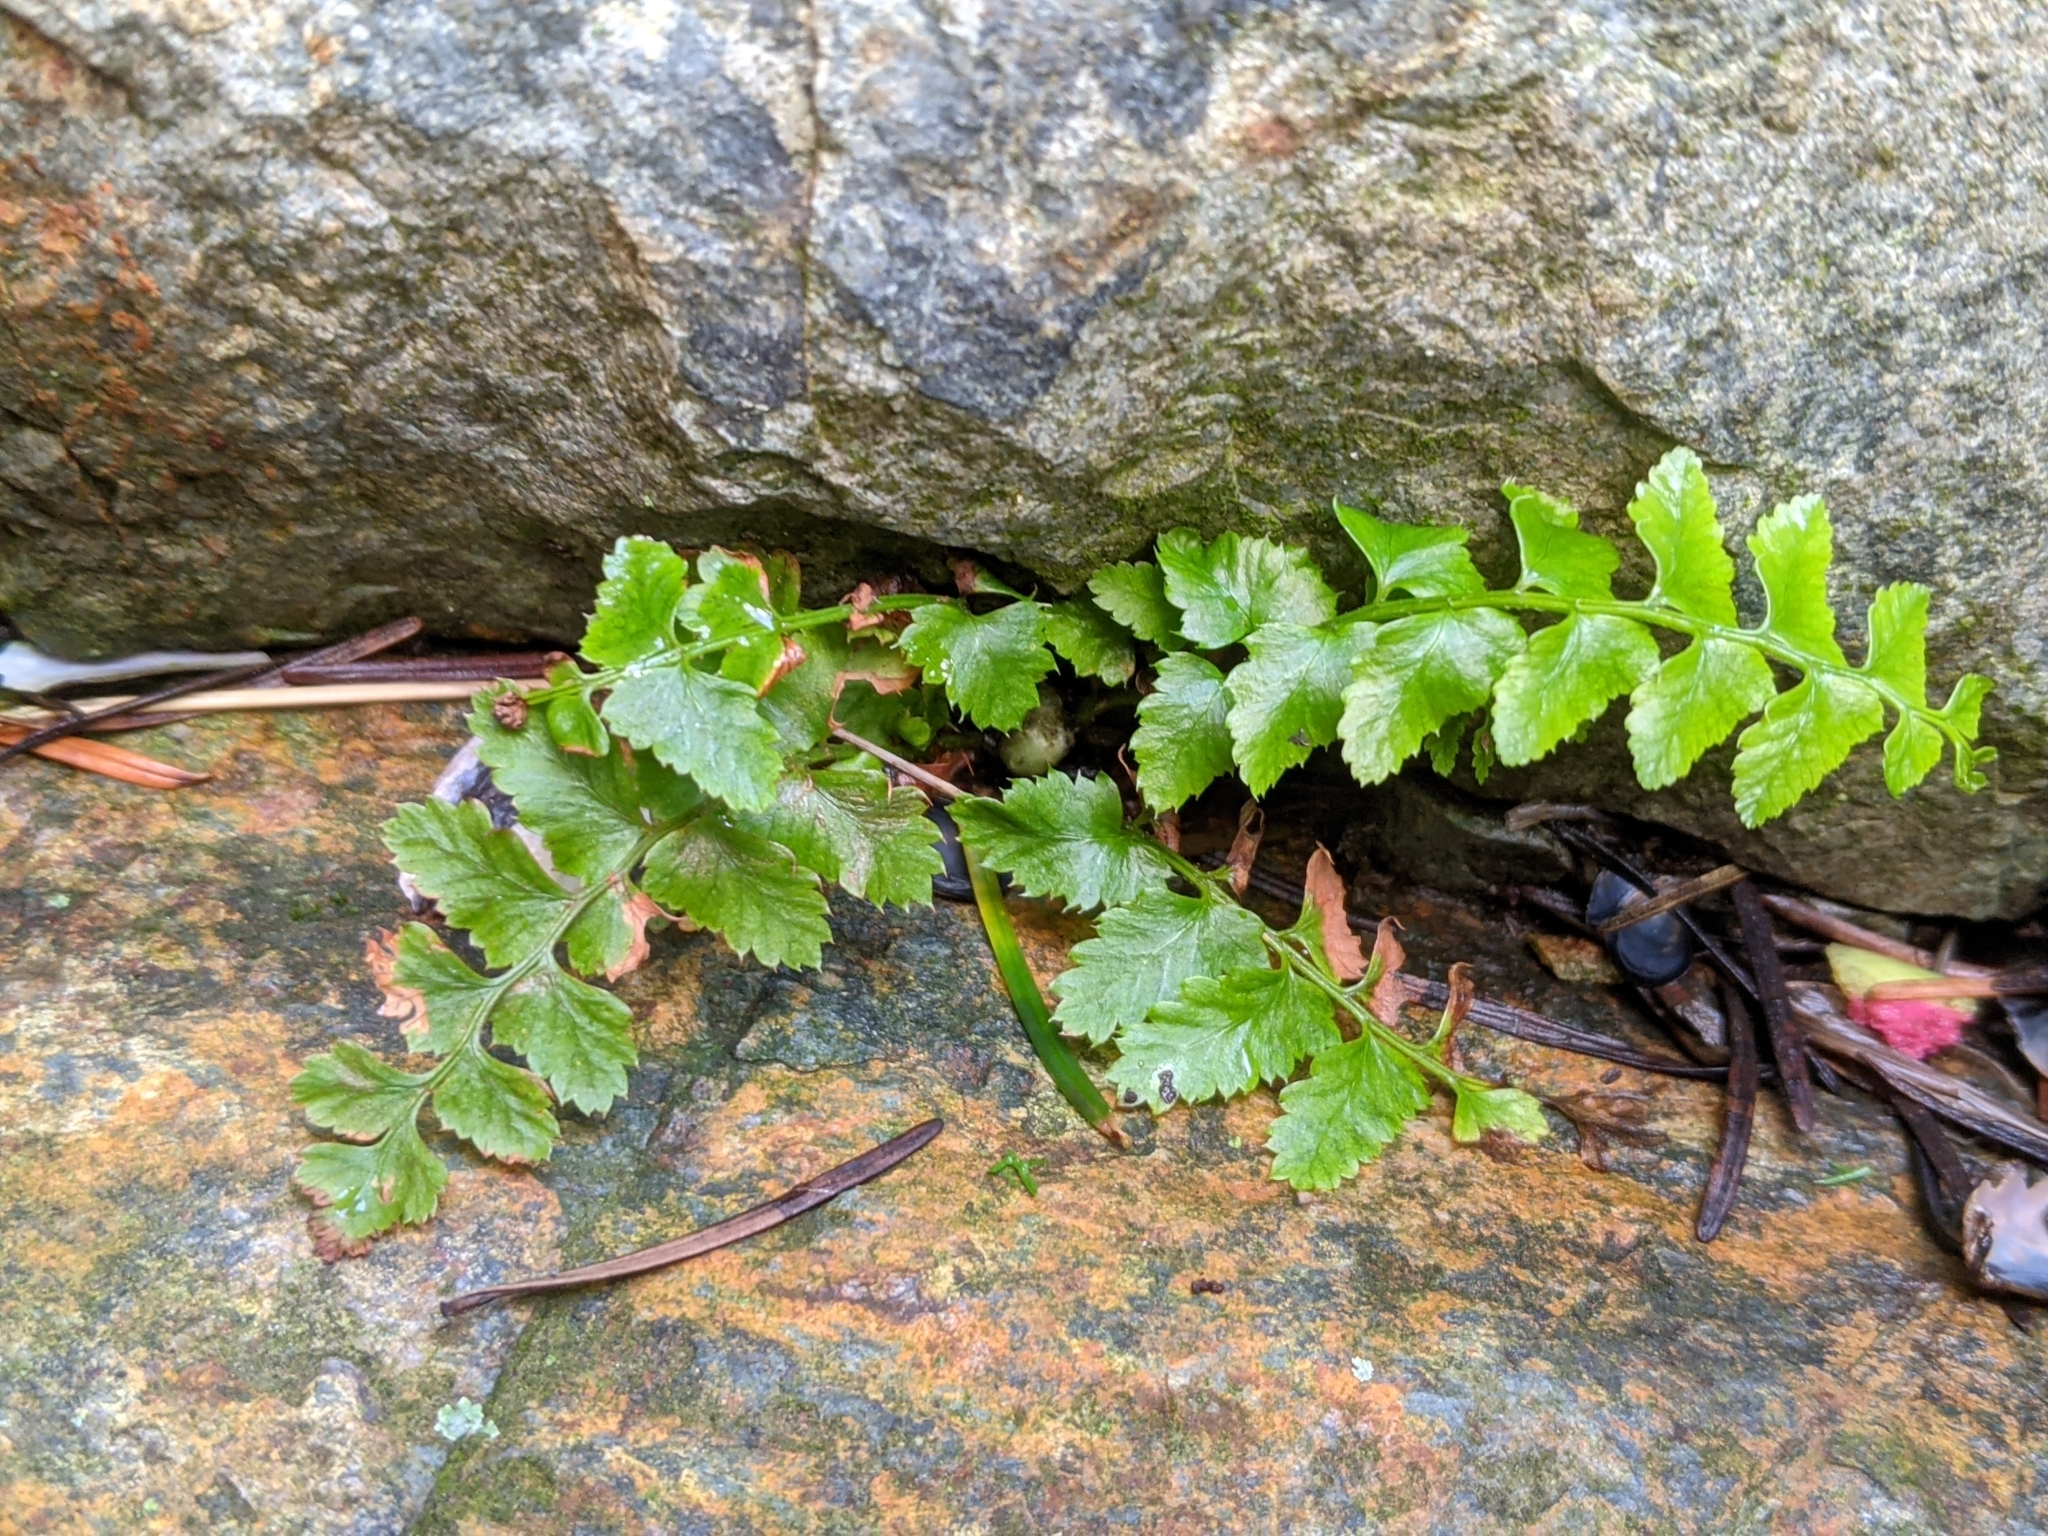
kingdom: Plantae
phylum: Tracheophyta
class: Polypodiopsida
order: Polypodiales
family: Dryopteridaceae
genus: Polystichum
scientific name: Polystichum munitum
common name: Western sword-fern
